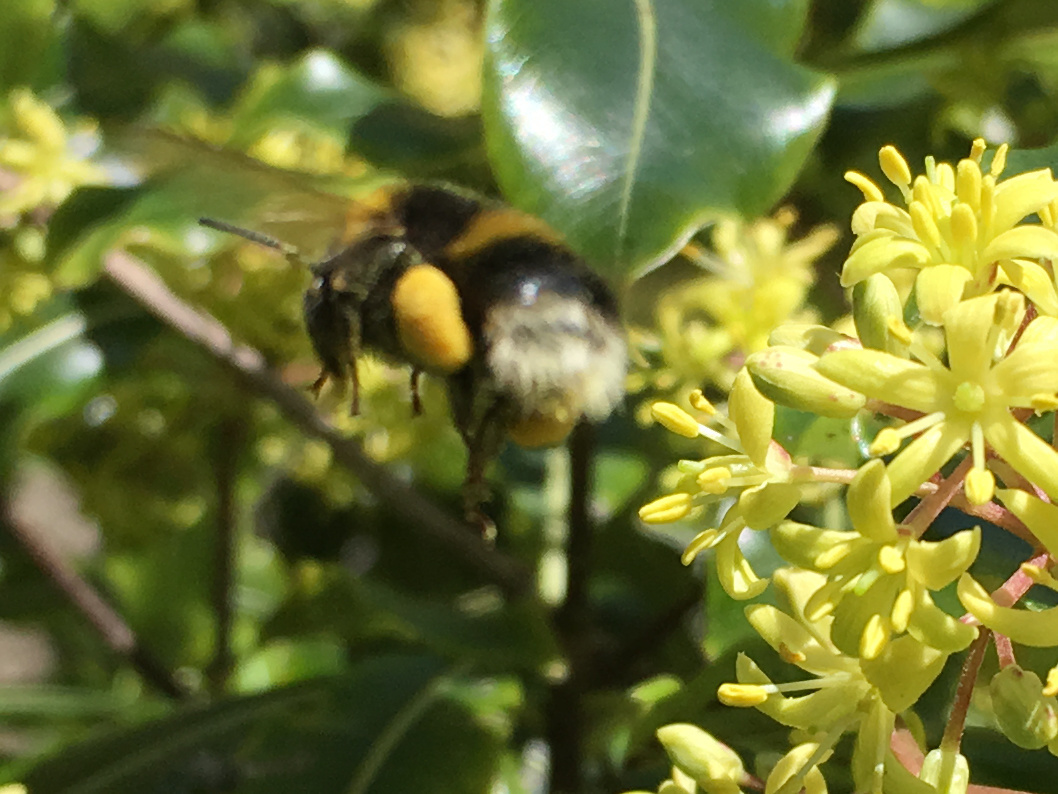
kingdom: Animalia
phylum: Arthropoda
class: Insecta
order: Hymenoptera
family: Apidae
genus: Bombus
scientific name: Bombus terrestris
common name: Buff-tailed bumblebee
